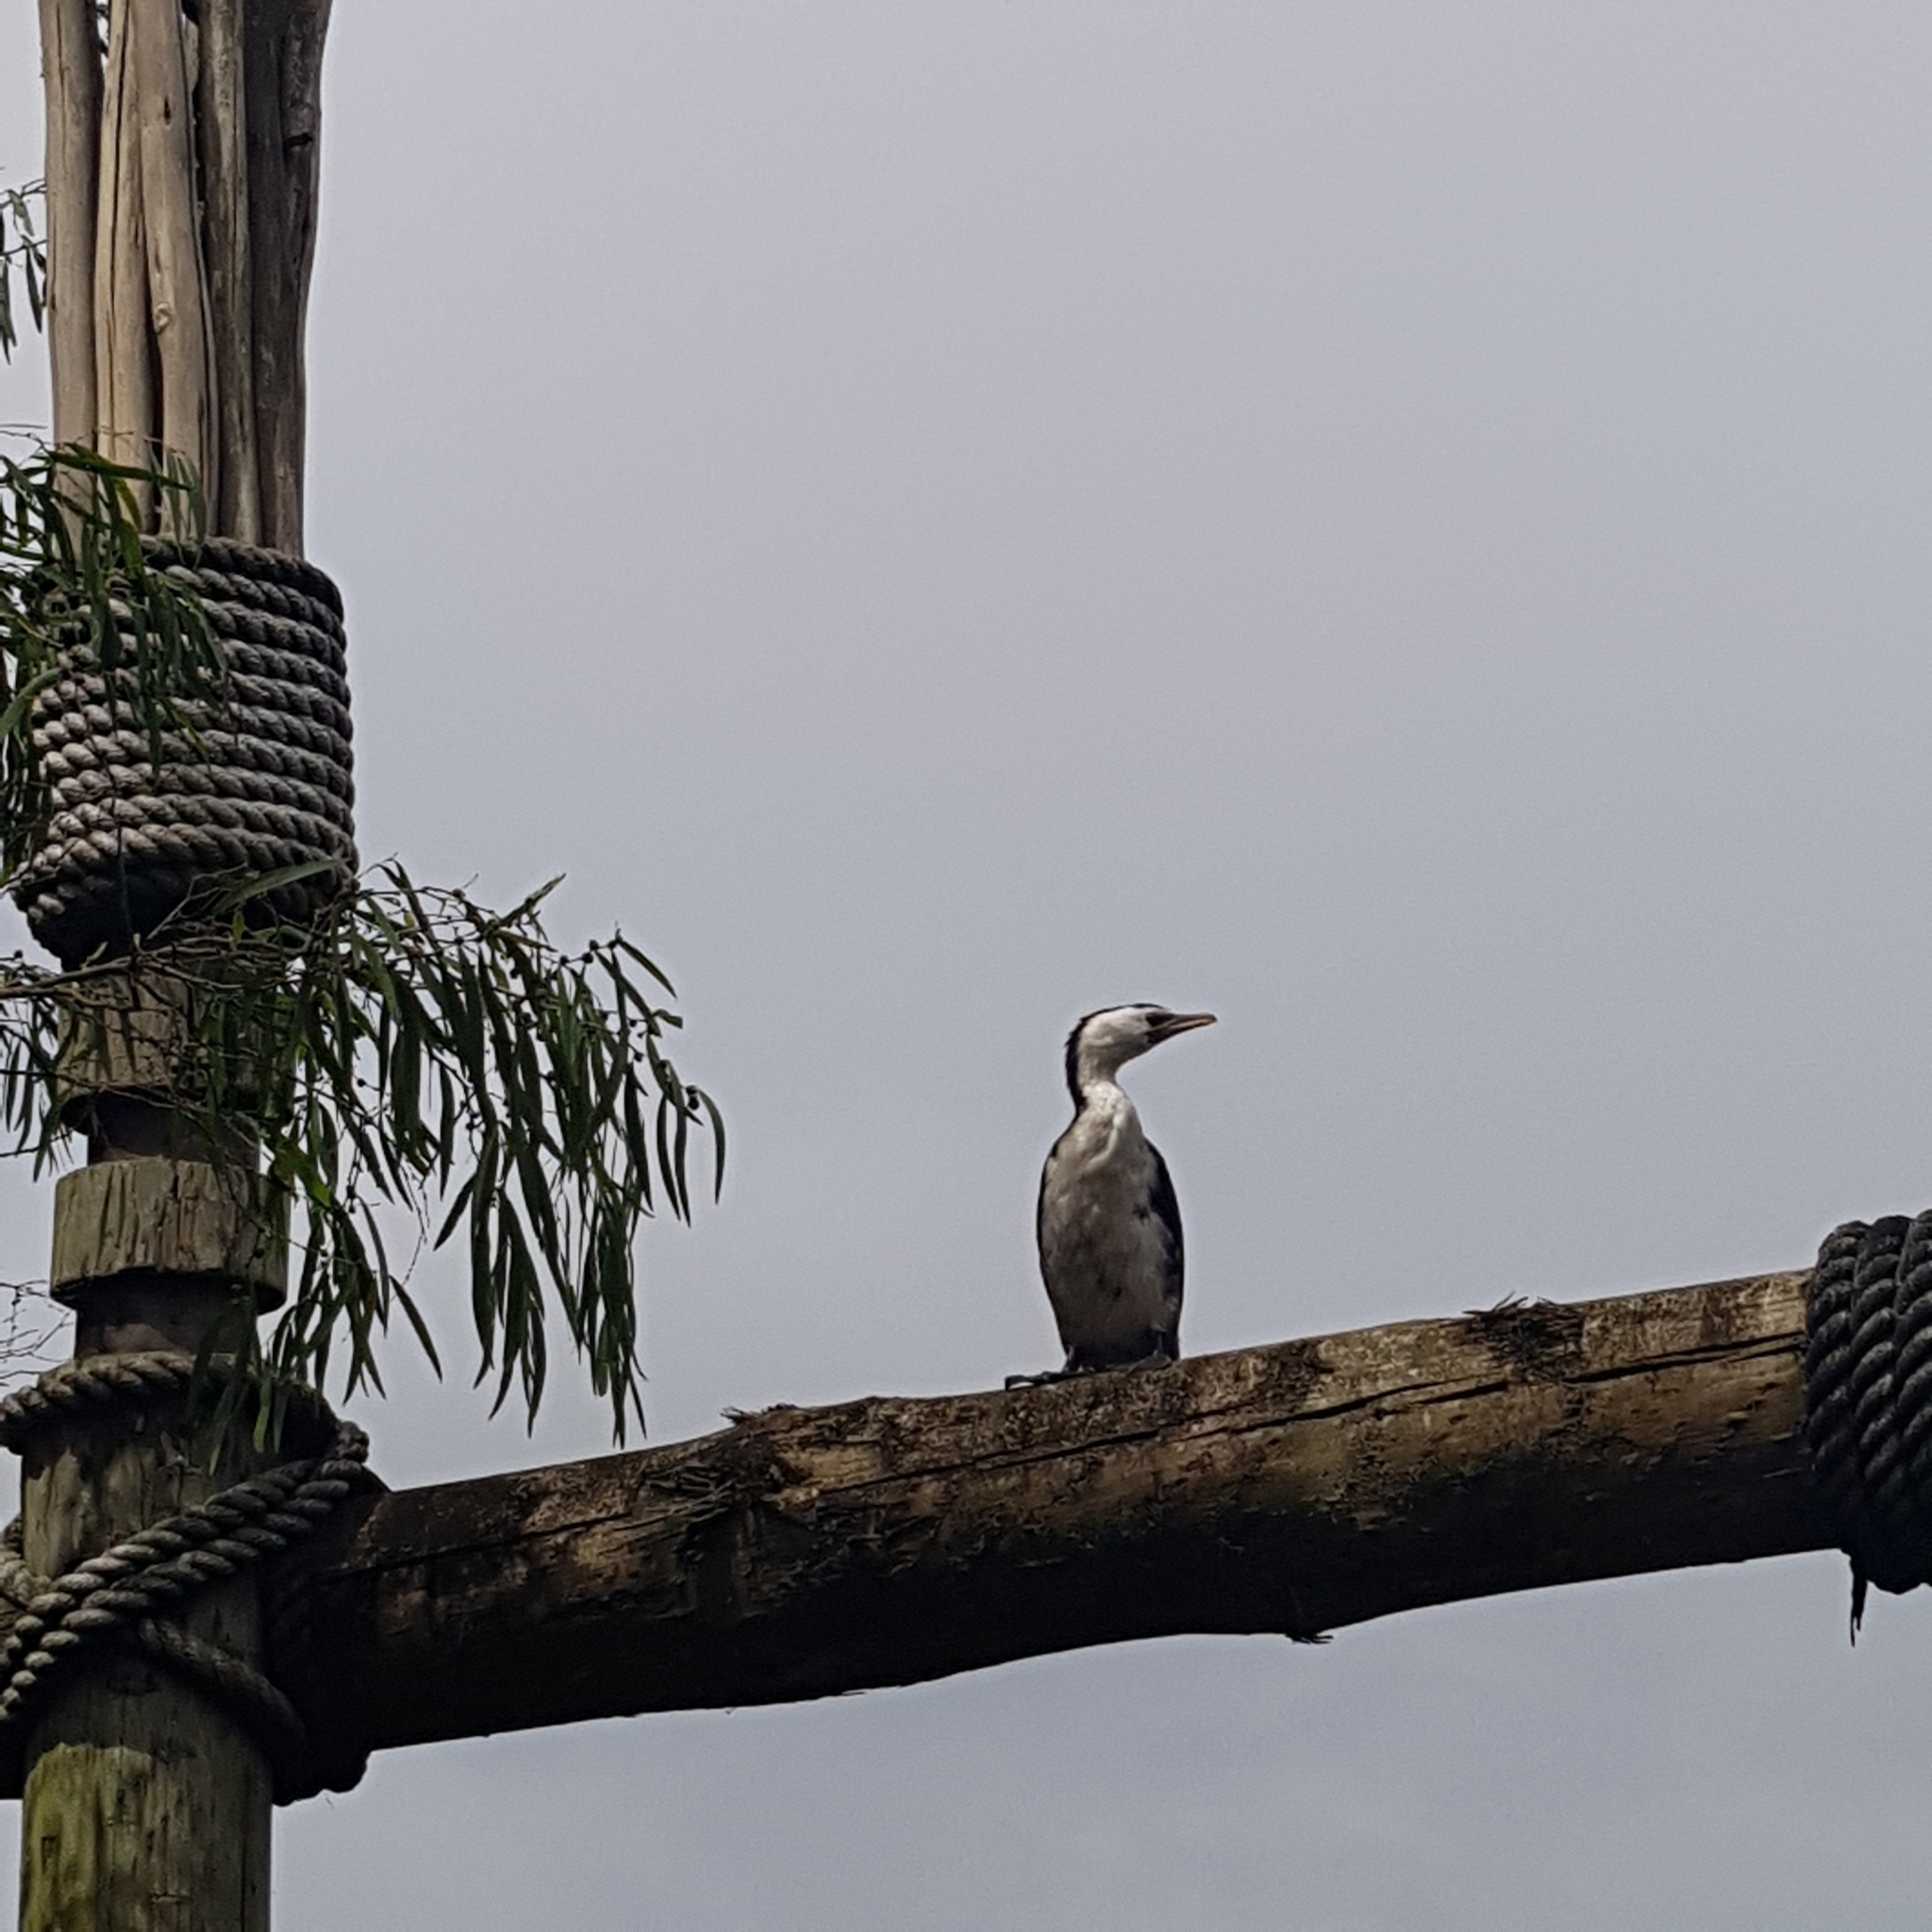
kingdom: Animalia
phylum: Chordata
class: Aves
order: Suliformes
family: Phalacrocoracidae
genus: Microcarbo
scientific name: Microcarbo melanoleucos
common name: Little pied cormorant
